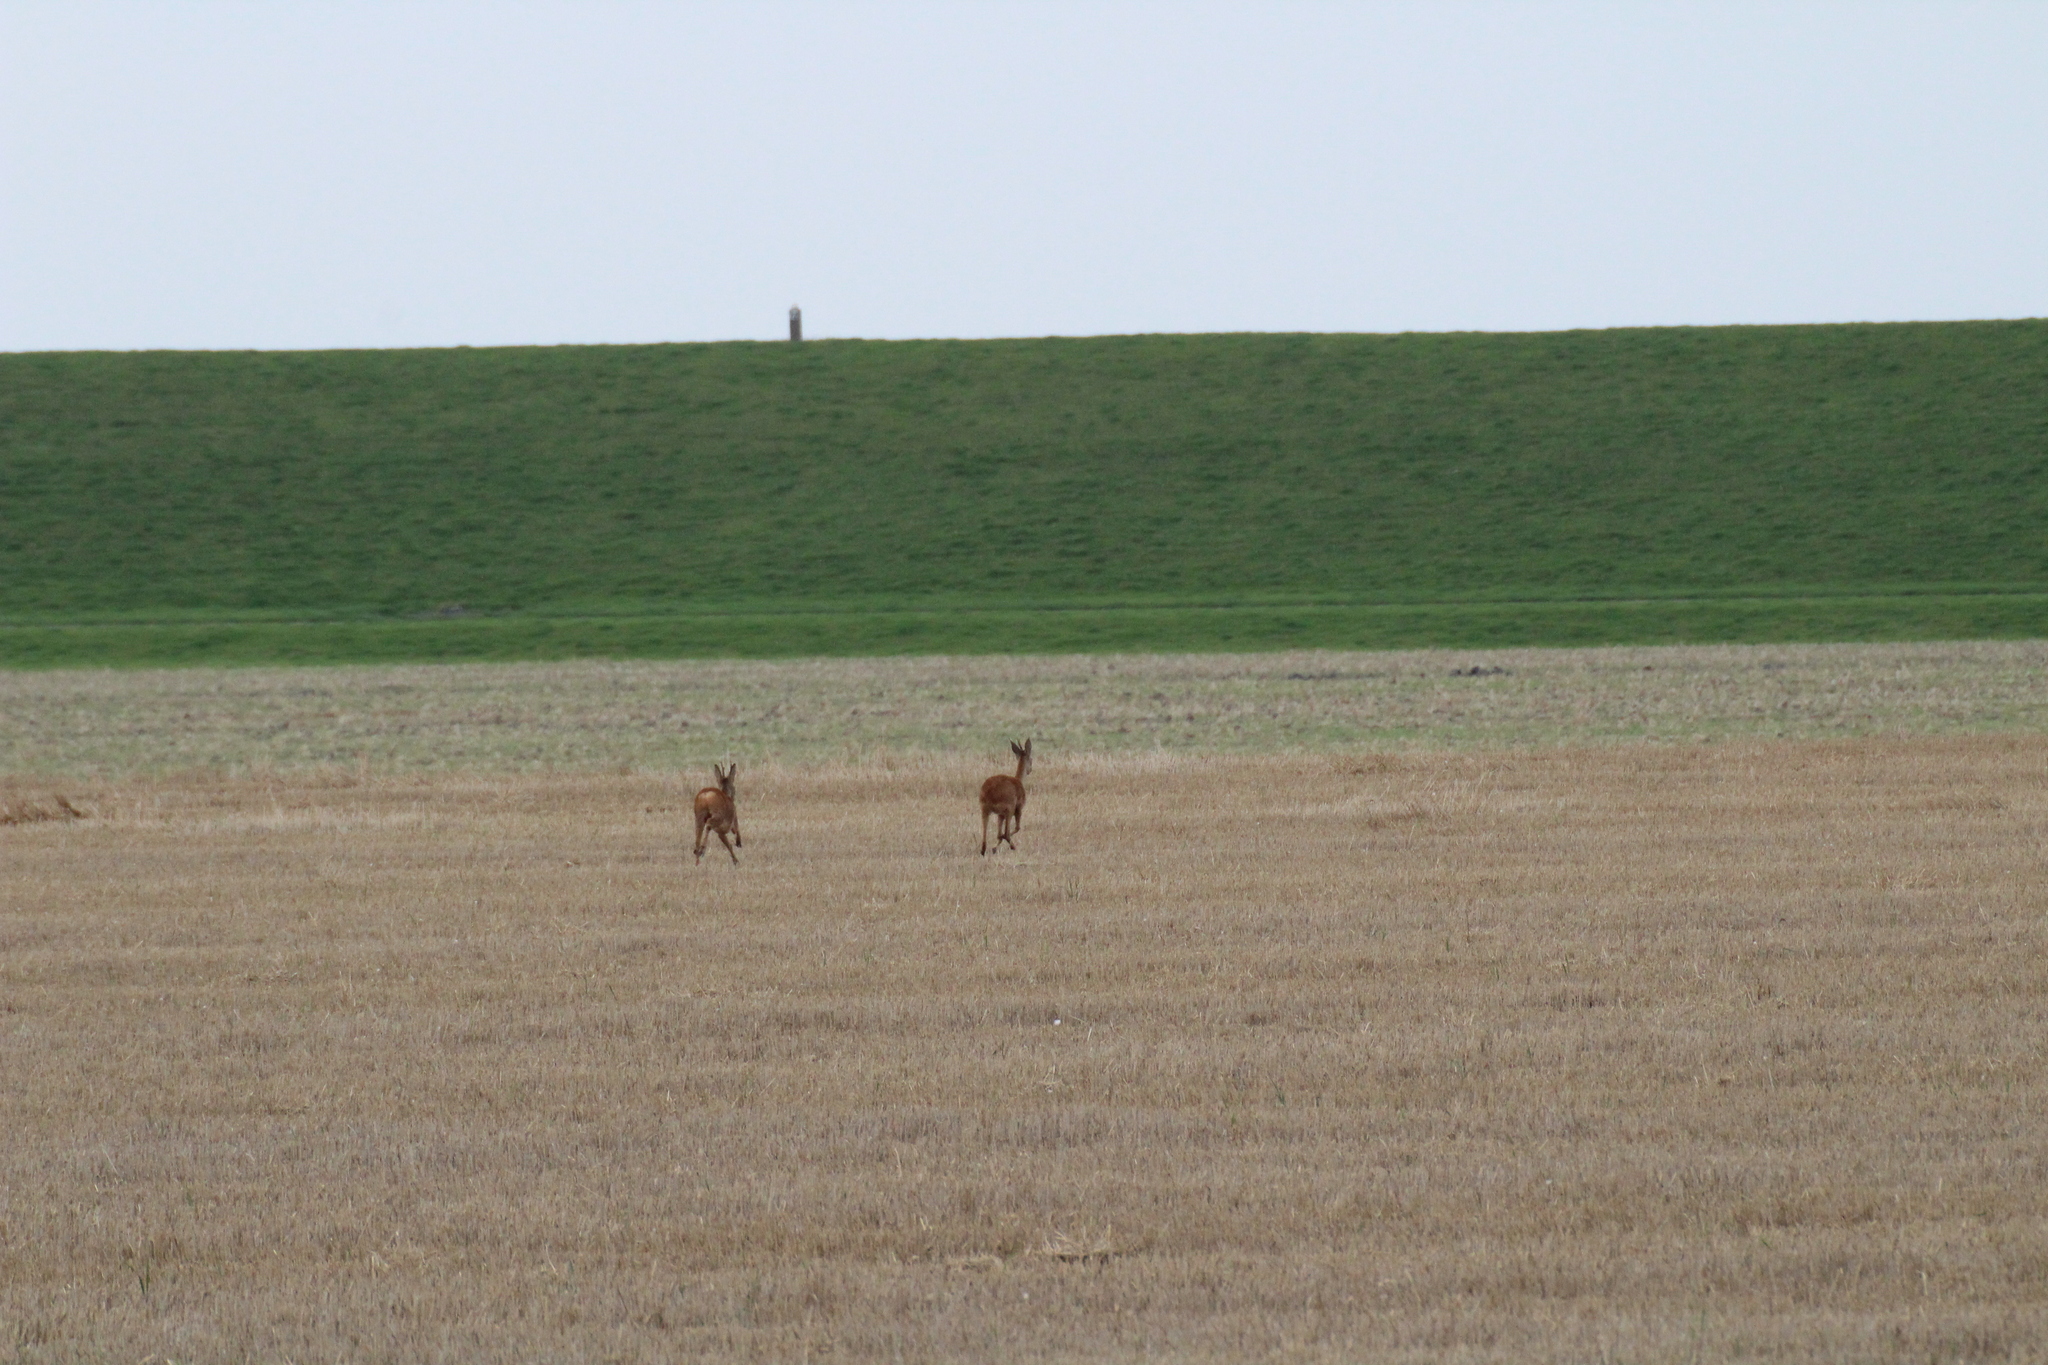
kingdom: Animalia
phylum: Chordata
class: Mammalia
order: Artiodactyla
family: Cervidae
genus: Capreolus
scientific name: Capreolus capreolus
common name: Western roe deer
